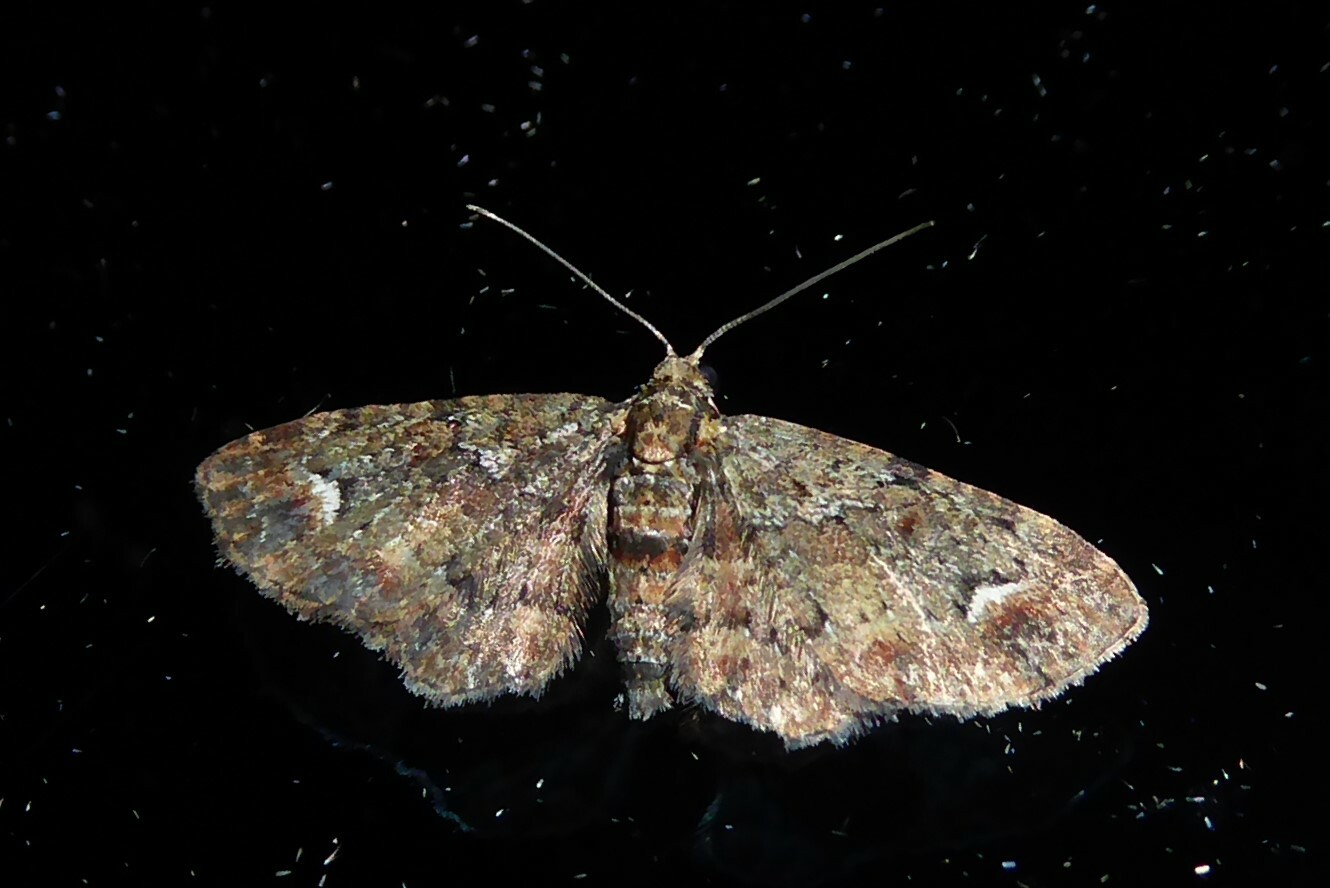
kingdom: Animalia
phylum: Arthropoda
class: Insecta
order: Lepidoptera
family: Geometridae
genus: Pasiphilodes
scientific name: Pasiphilodes testulata
